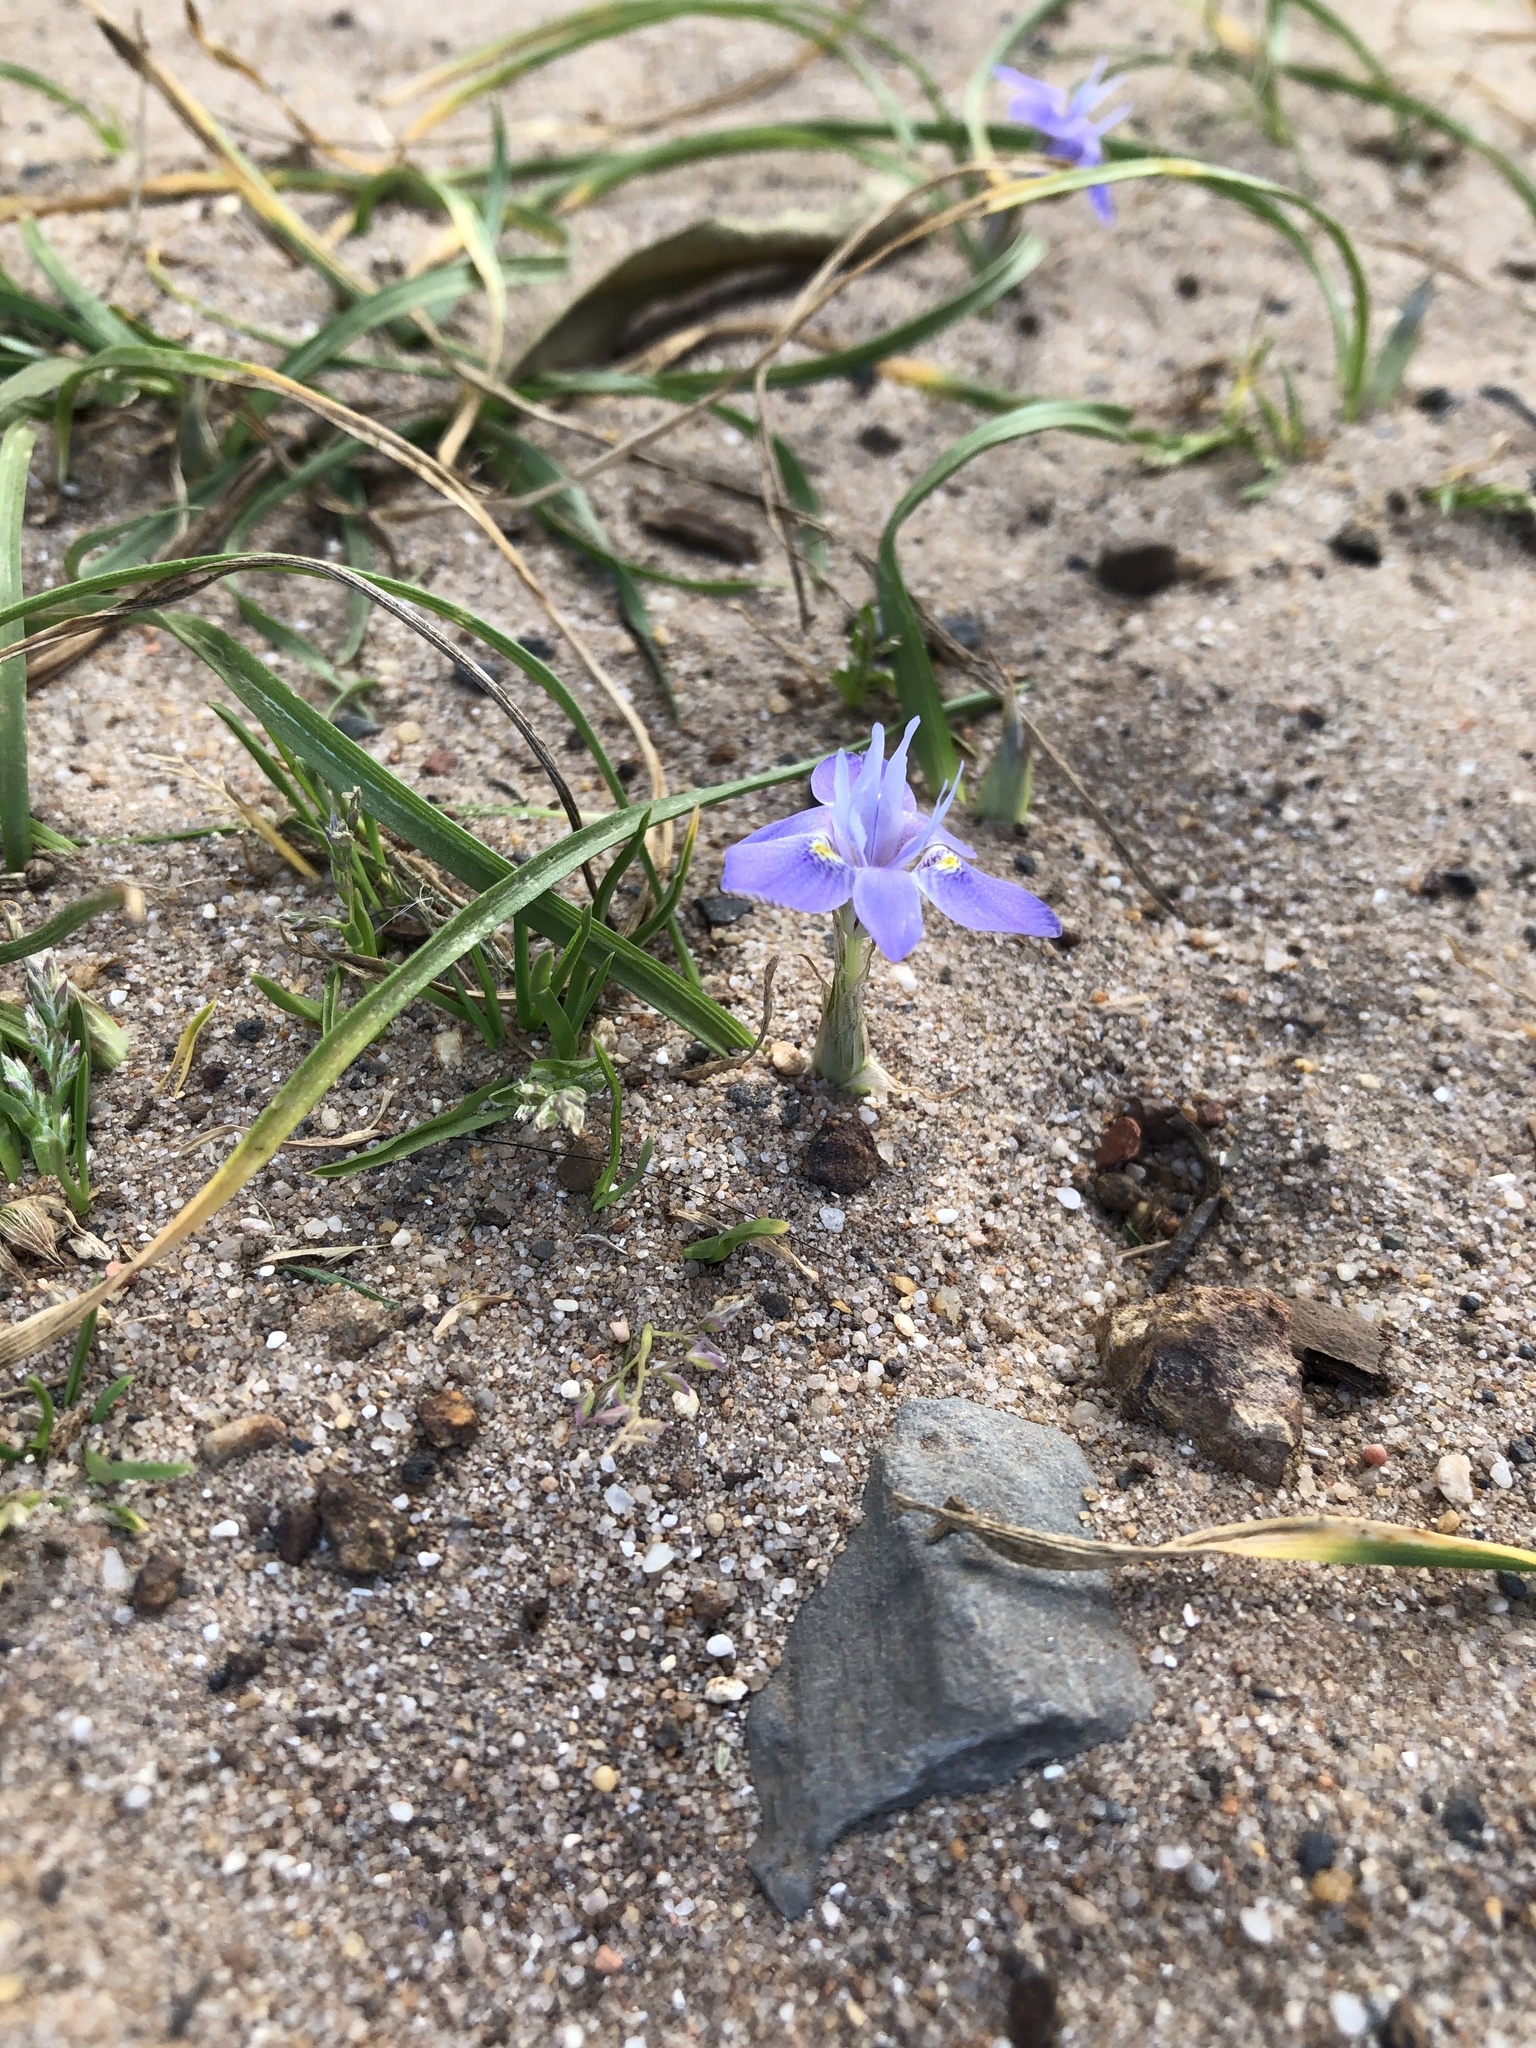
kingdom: Plantae
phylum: Tracheophyta
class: Liliopsida
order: Asparagales
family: Iridaceae
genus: Moraea
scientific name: Moraea setifolia
